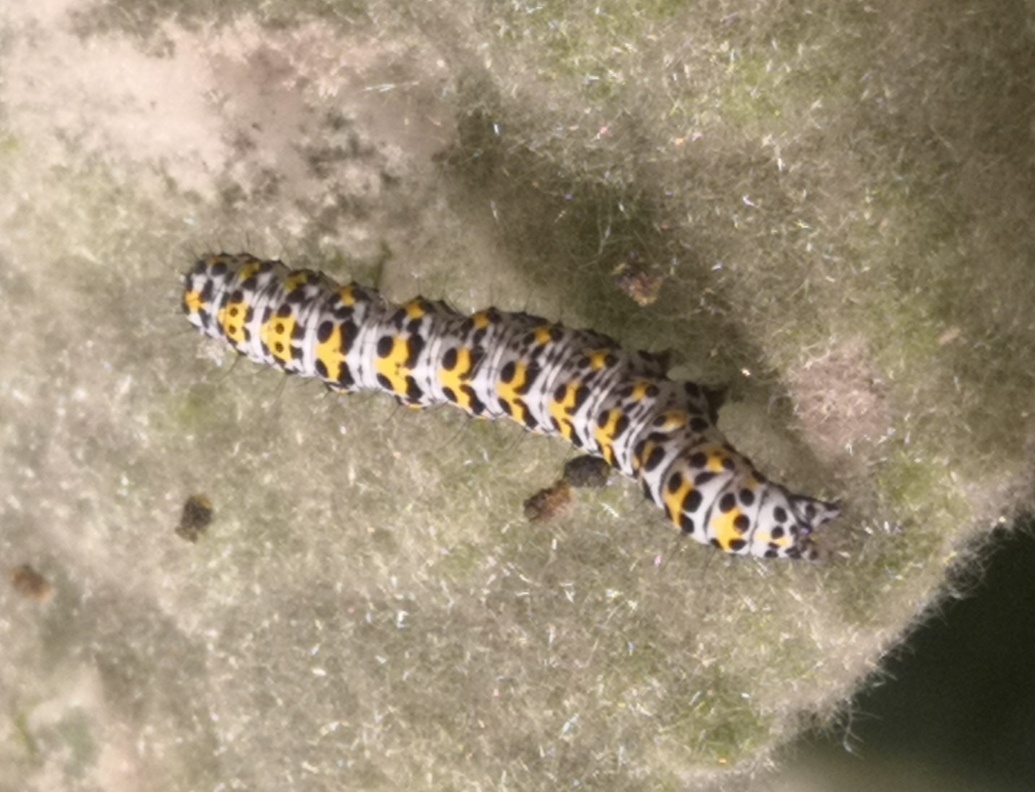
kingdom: Animalia
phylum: Arthropoda
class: Insecta
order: Lepidoptera
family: Noctuidae
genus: Cucullia
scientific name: Cucullia verbasci
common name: Mullein
